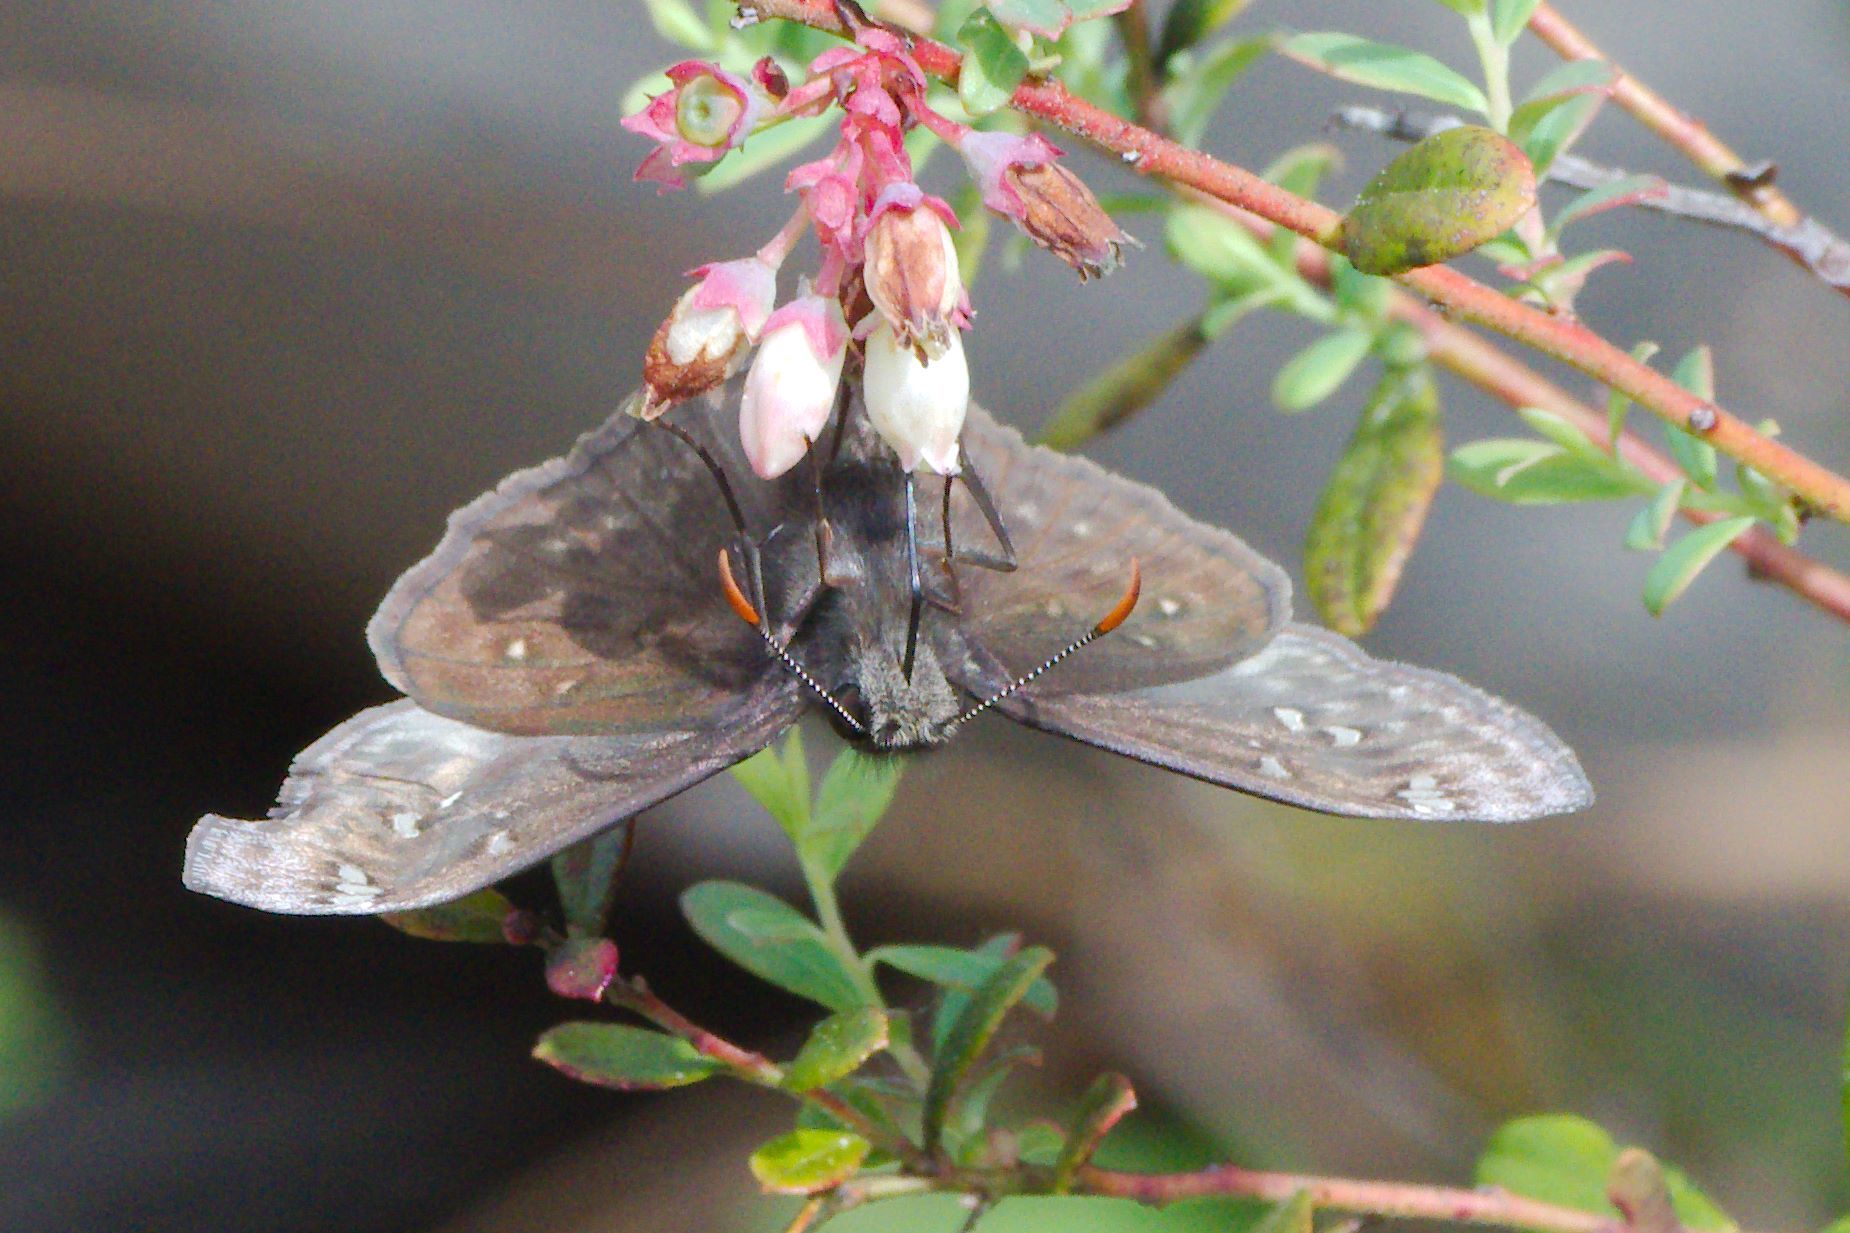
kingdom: Animalia
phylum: Arthropoda
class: Insecta
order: Lepidoptera
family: Hesperiidae
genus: Erynnis
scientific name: Erynnis juvenalis
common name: Juvenal's duskywing
